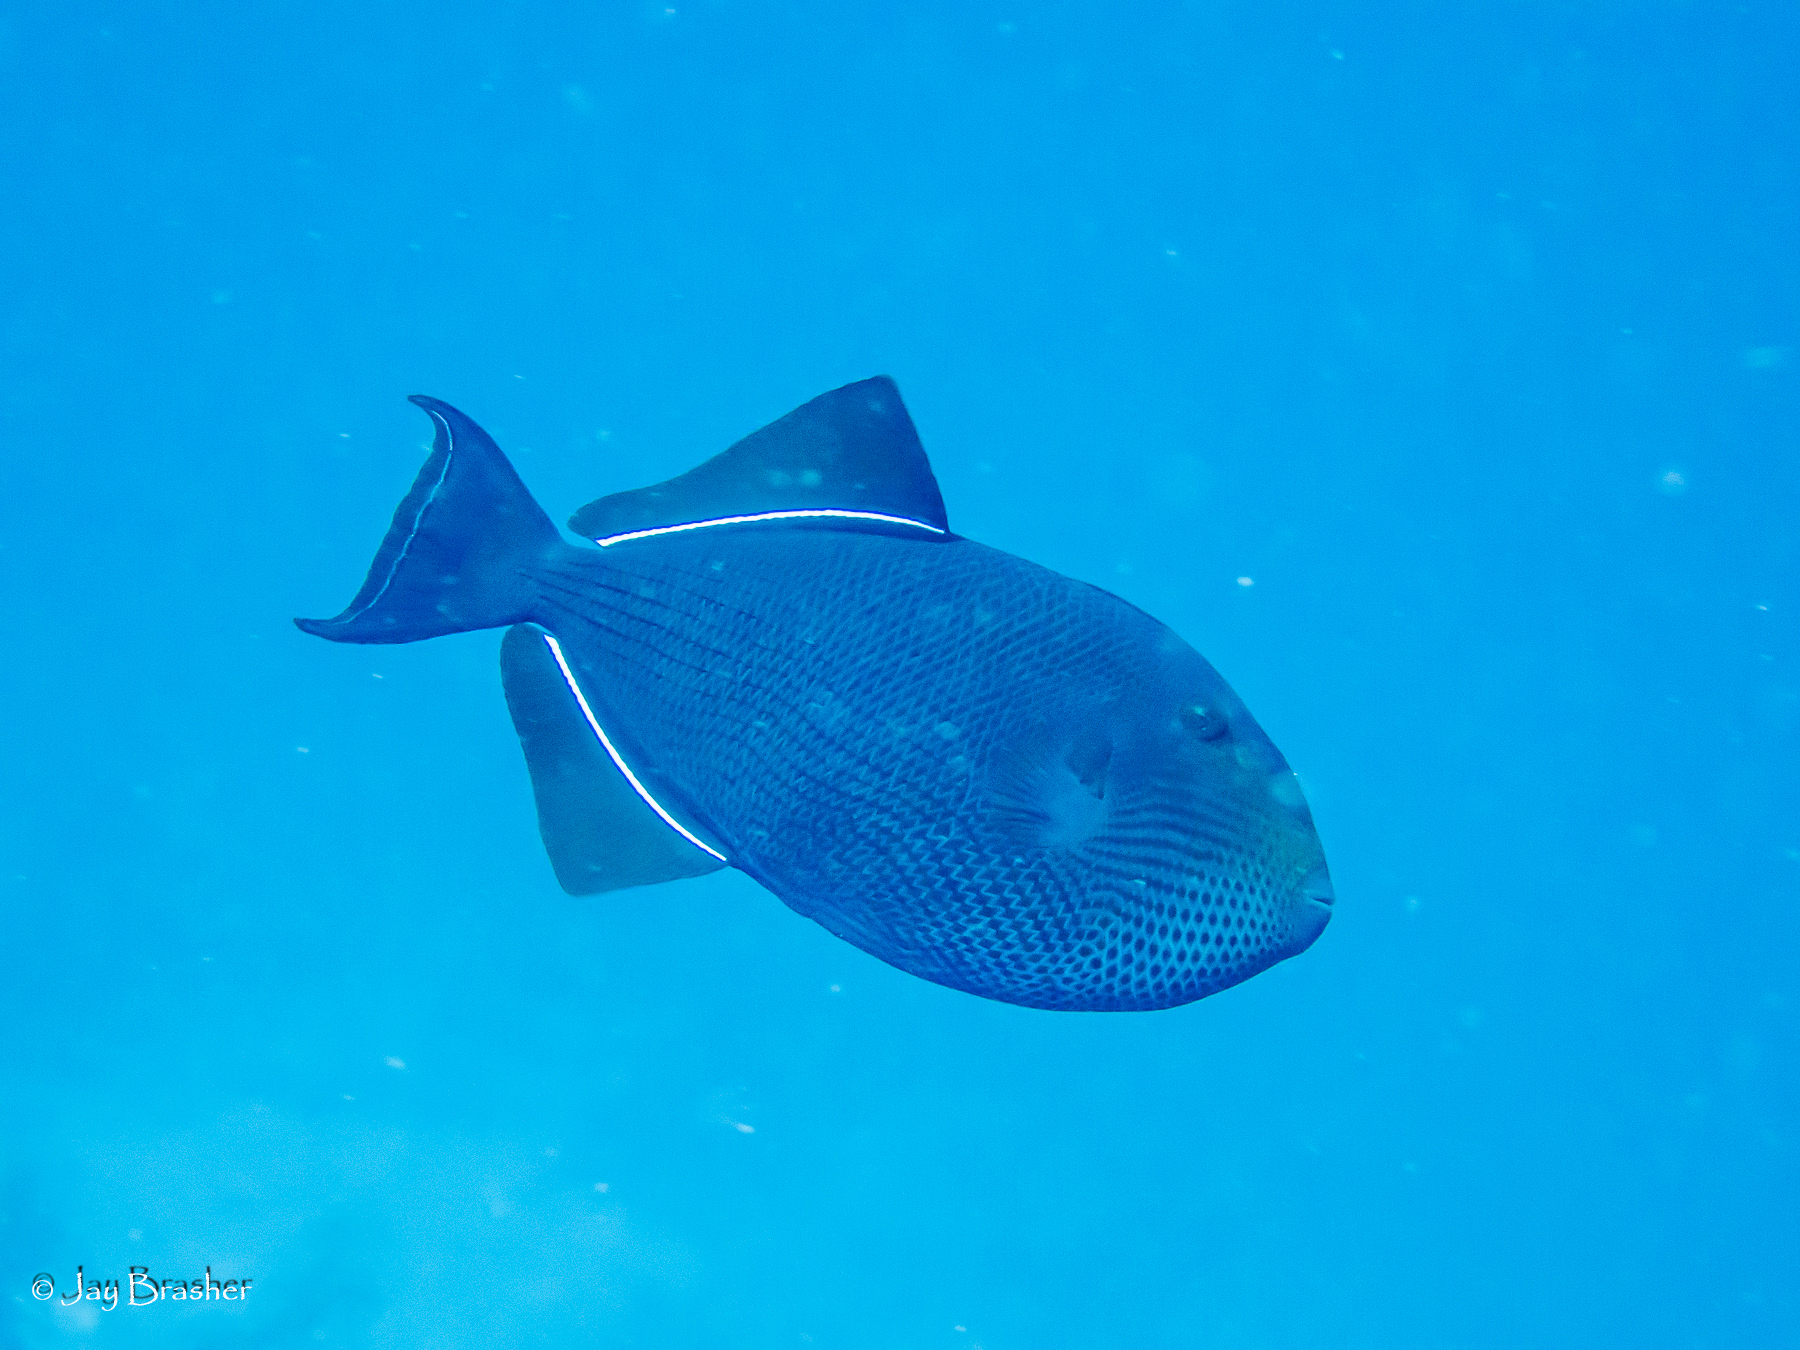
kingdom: Animalia
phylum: Chordata
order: Tetraodontiformes
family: Balistidae
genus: Melichthys
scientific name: Melichthys niger
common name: Black durgon
